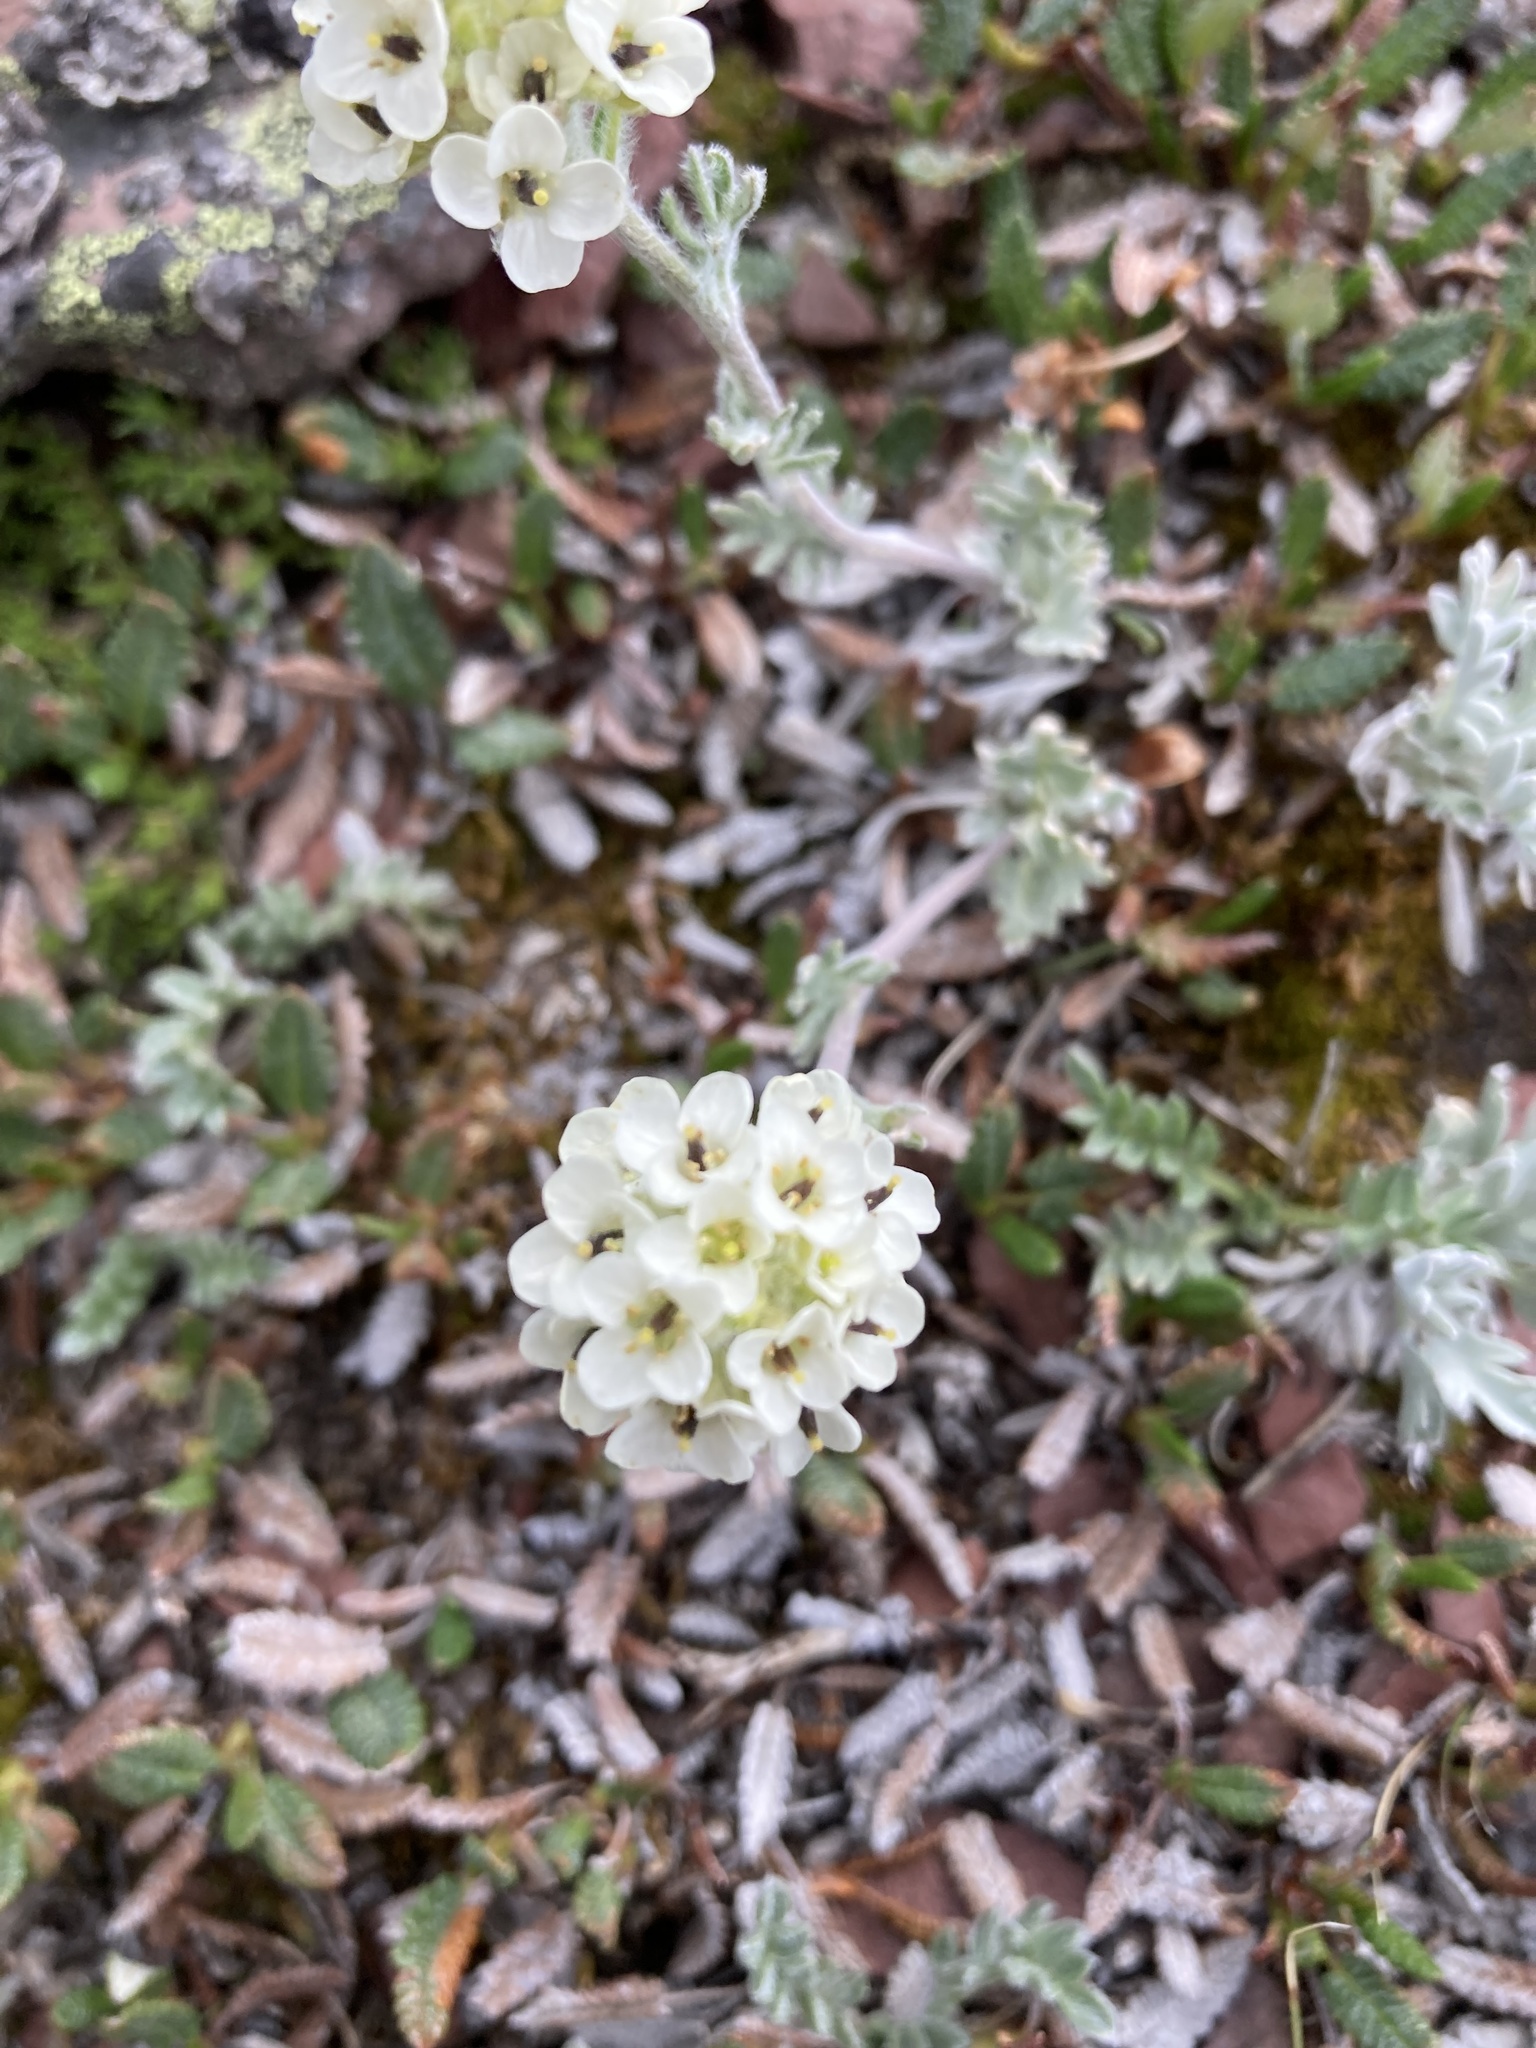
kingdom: Plantae
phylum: Tracheophyta
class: Magnoliopsida
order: Brassicales
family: Brassicaceae
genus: Smelowskia
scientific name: Smelowskia americana
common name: American false candytuft
